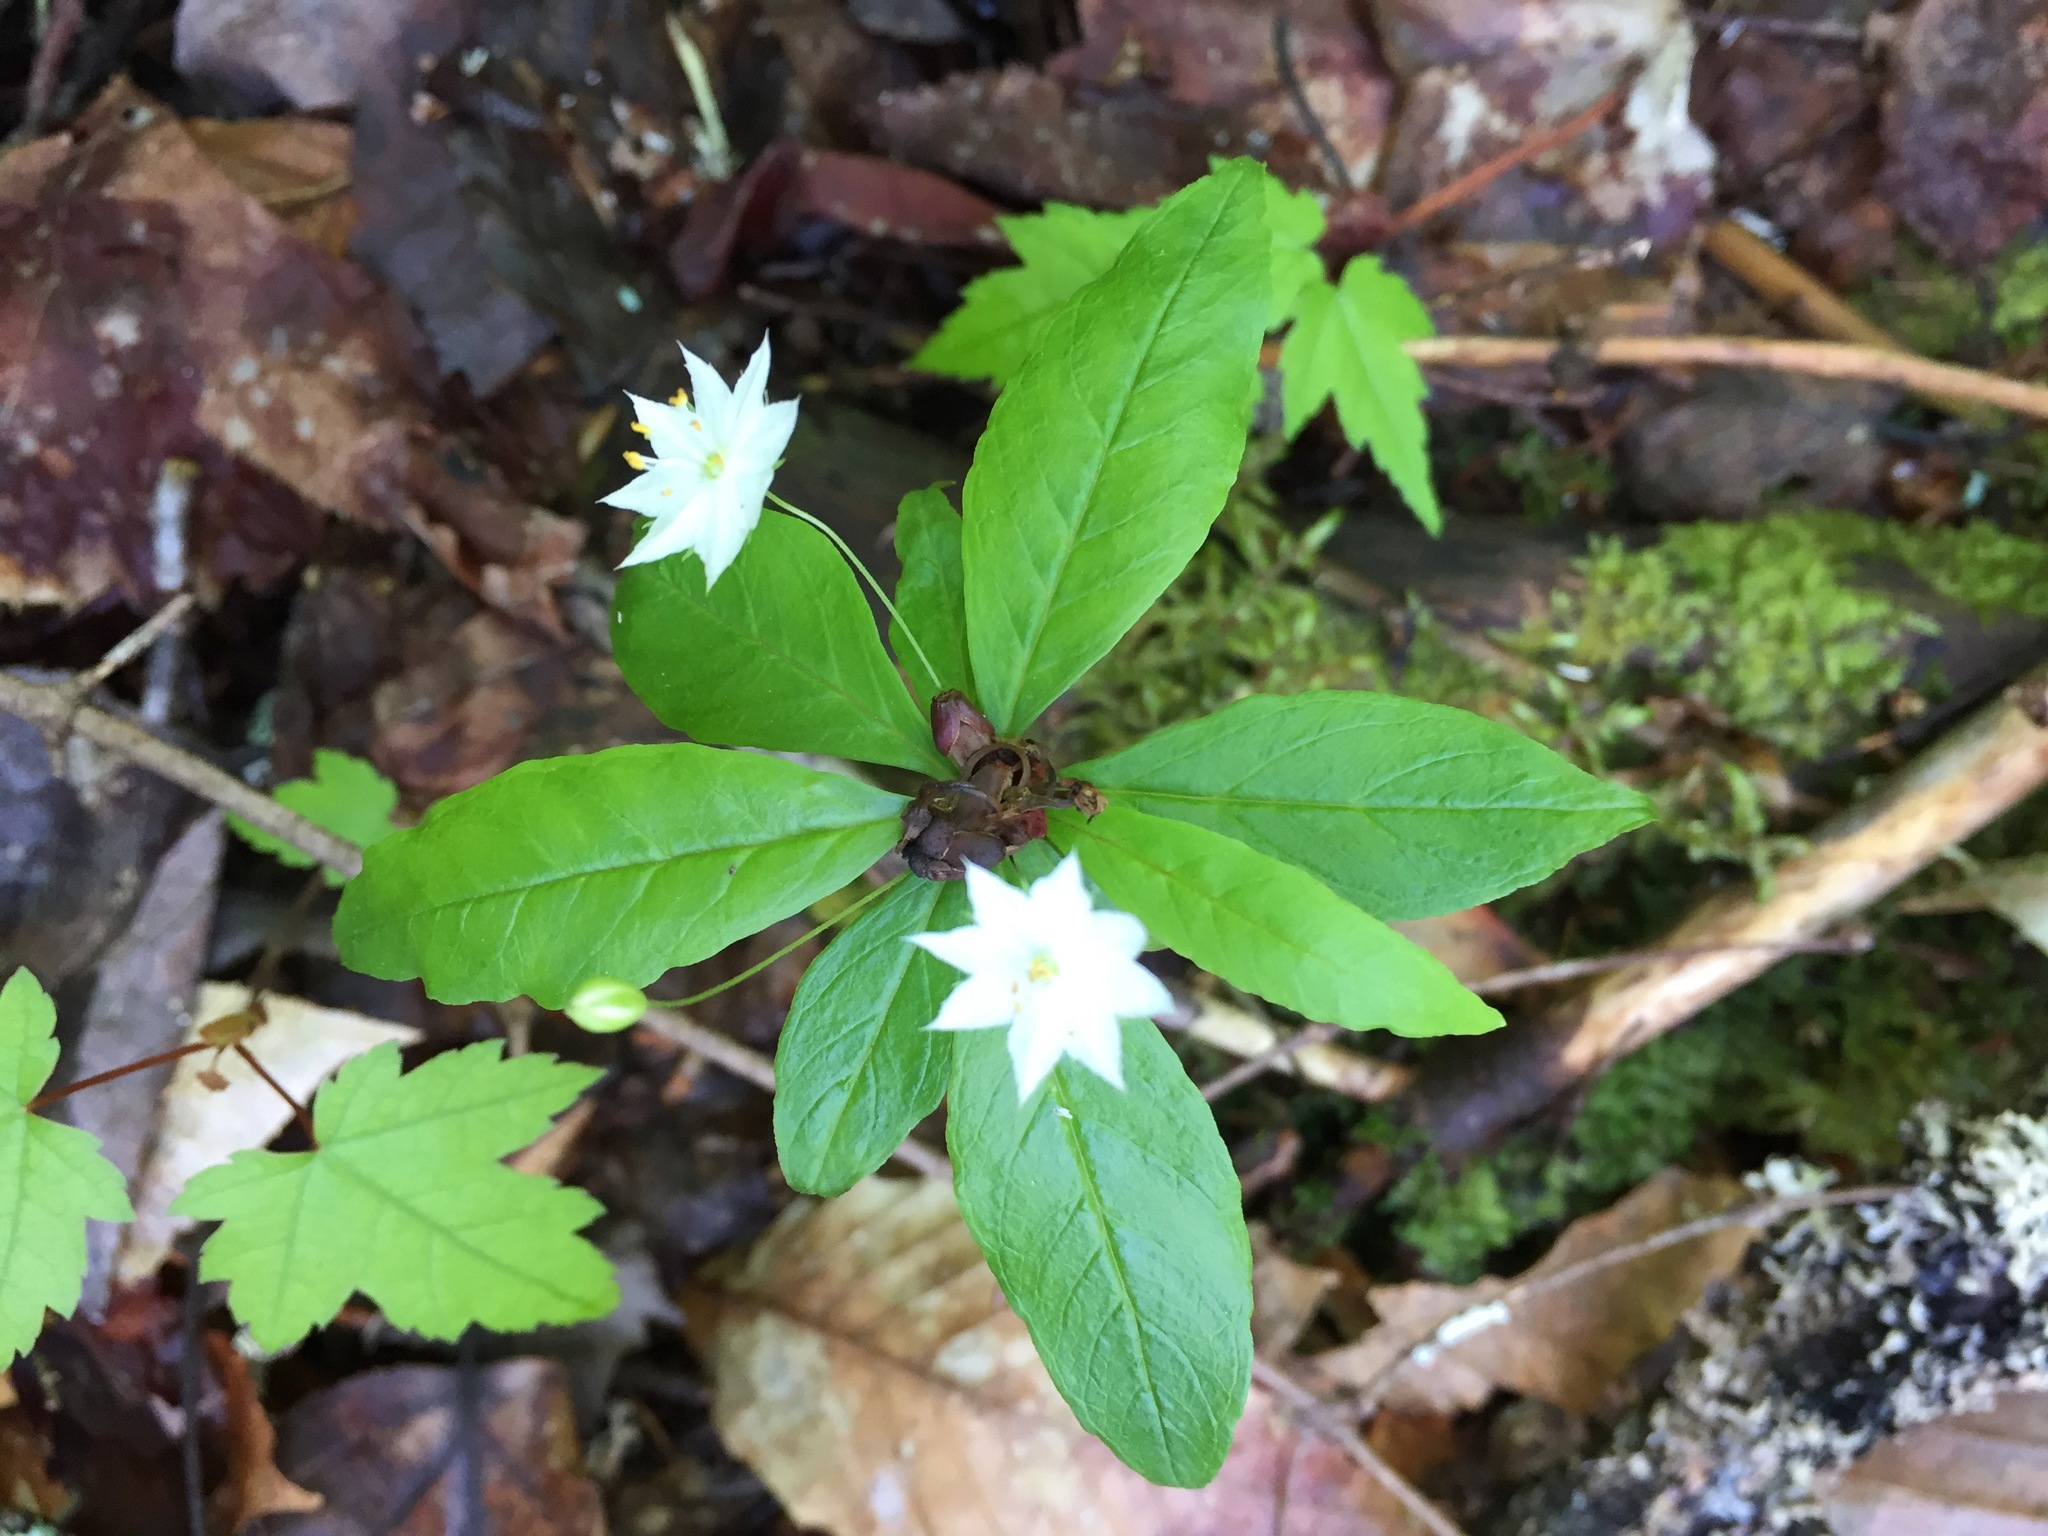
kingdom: Plantae
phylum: Tracheophyta
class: Magnoliopsida
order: Ericales
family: Primulaceae
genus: Lysimachia
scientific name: Lysimachia borealis
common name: American starflower
